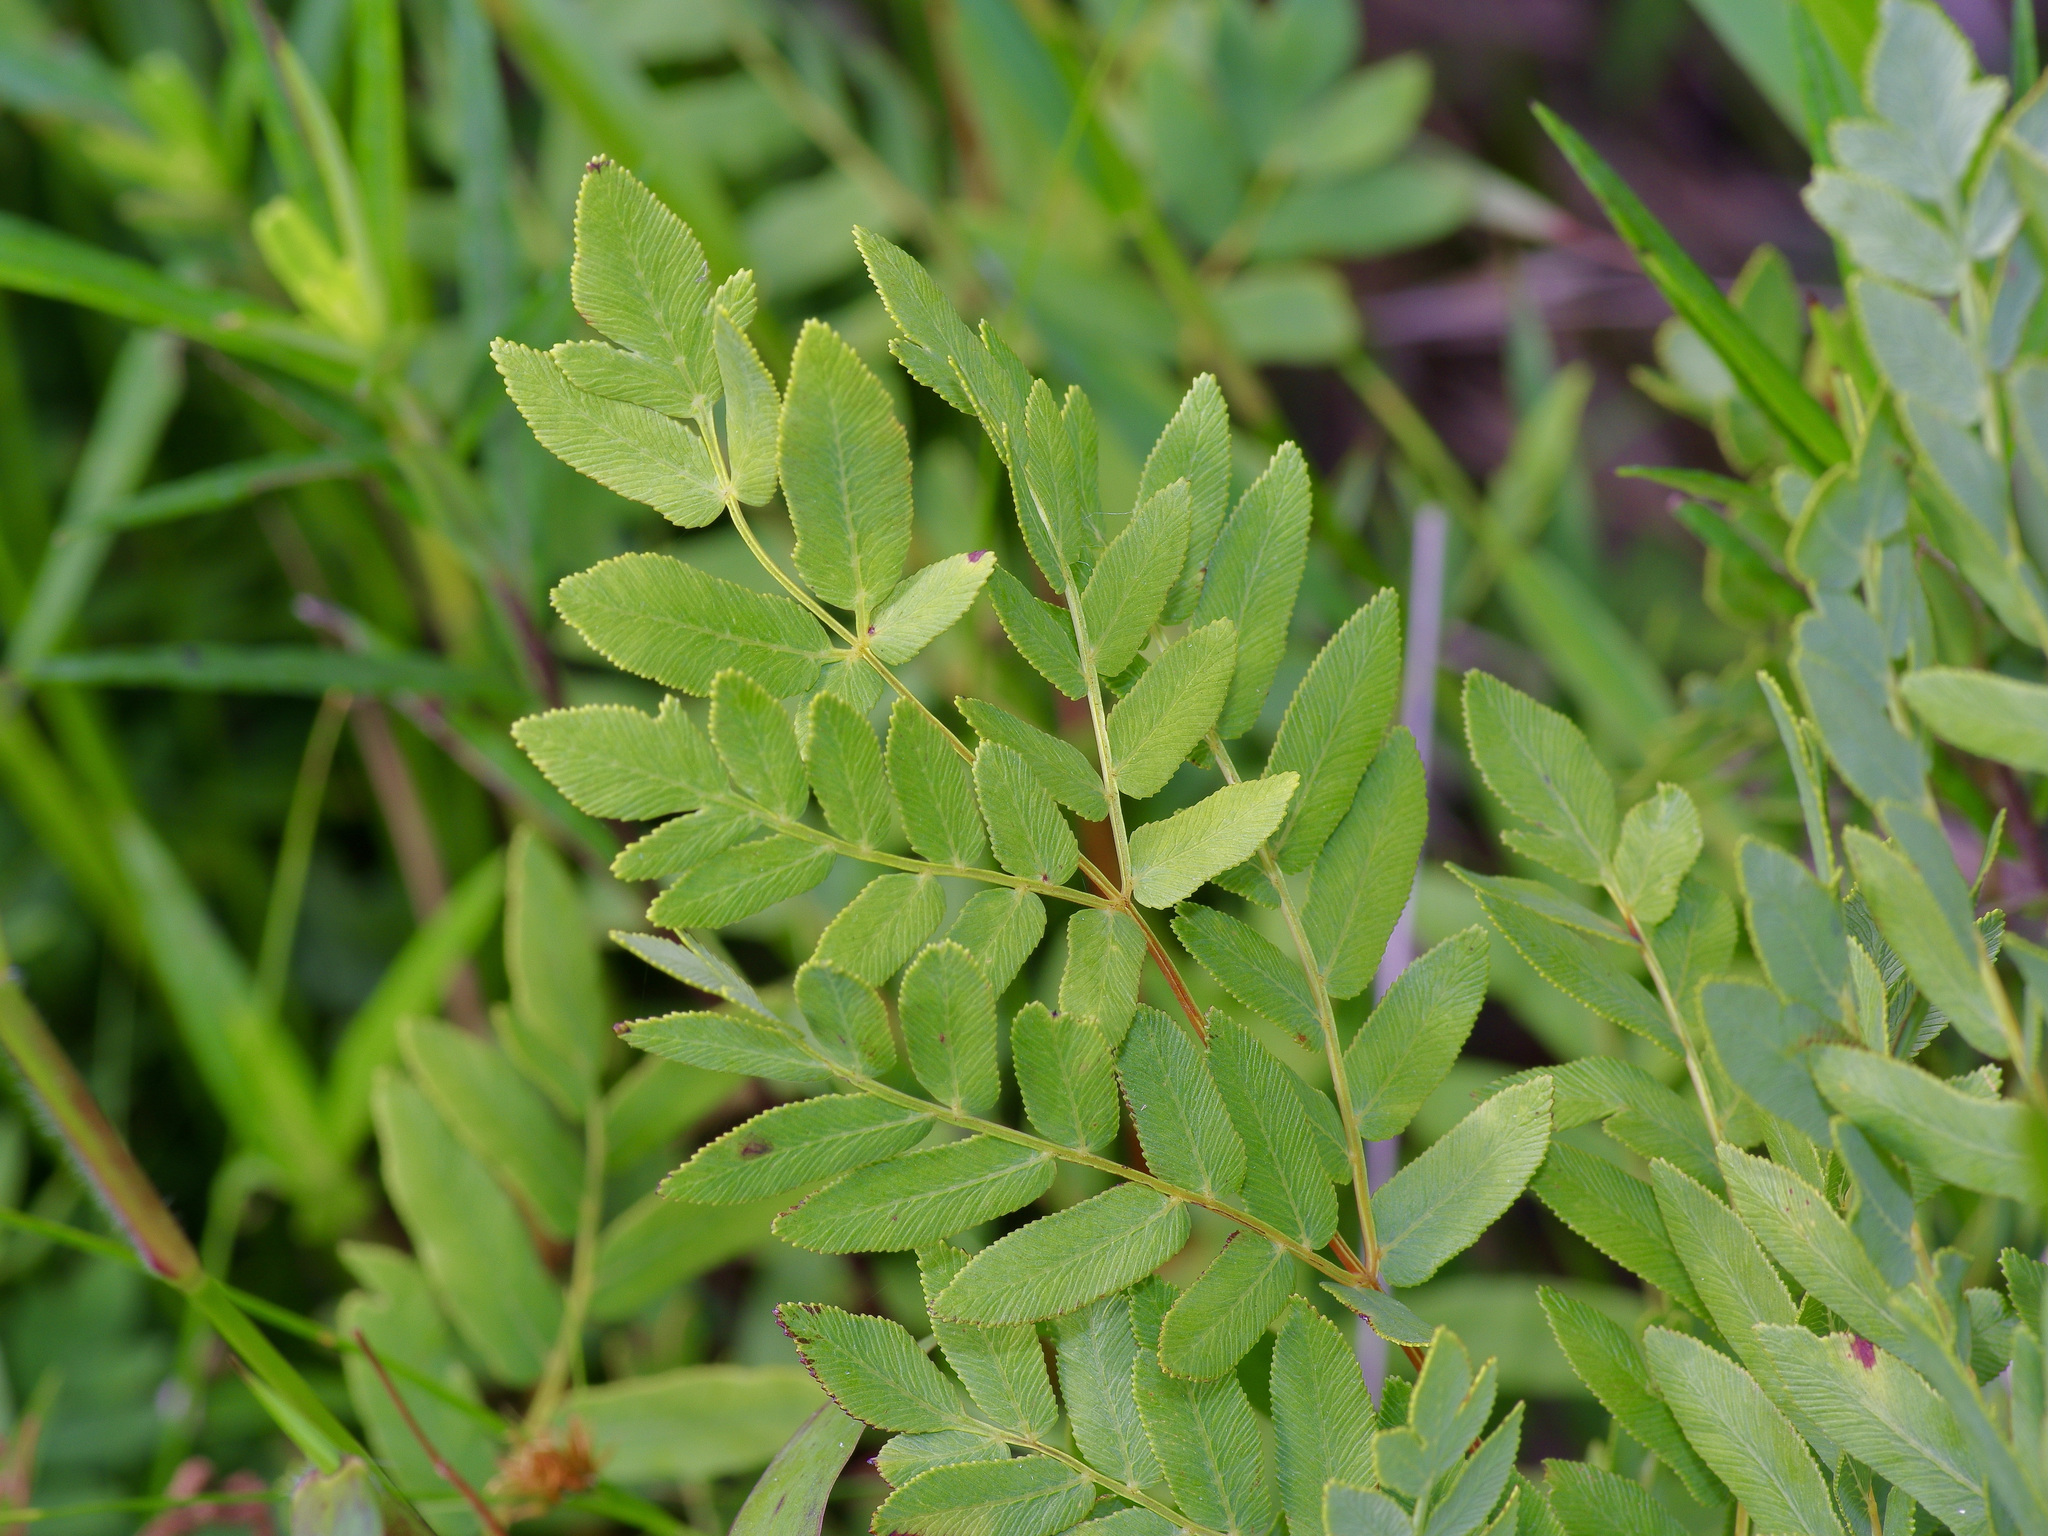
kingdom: Plantae
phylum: Tracheophyta
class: Polypodiopsida
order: Osmundales
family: Osmundaceae
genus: Osmunda
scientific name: Osmunda spectabilis
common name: American royal fern
